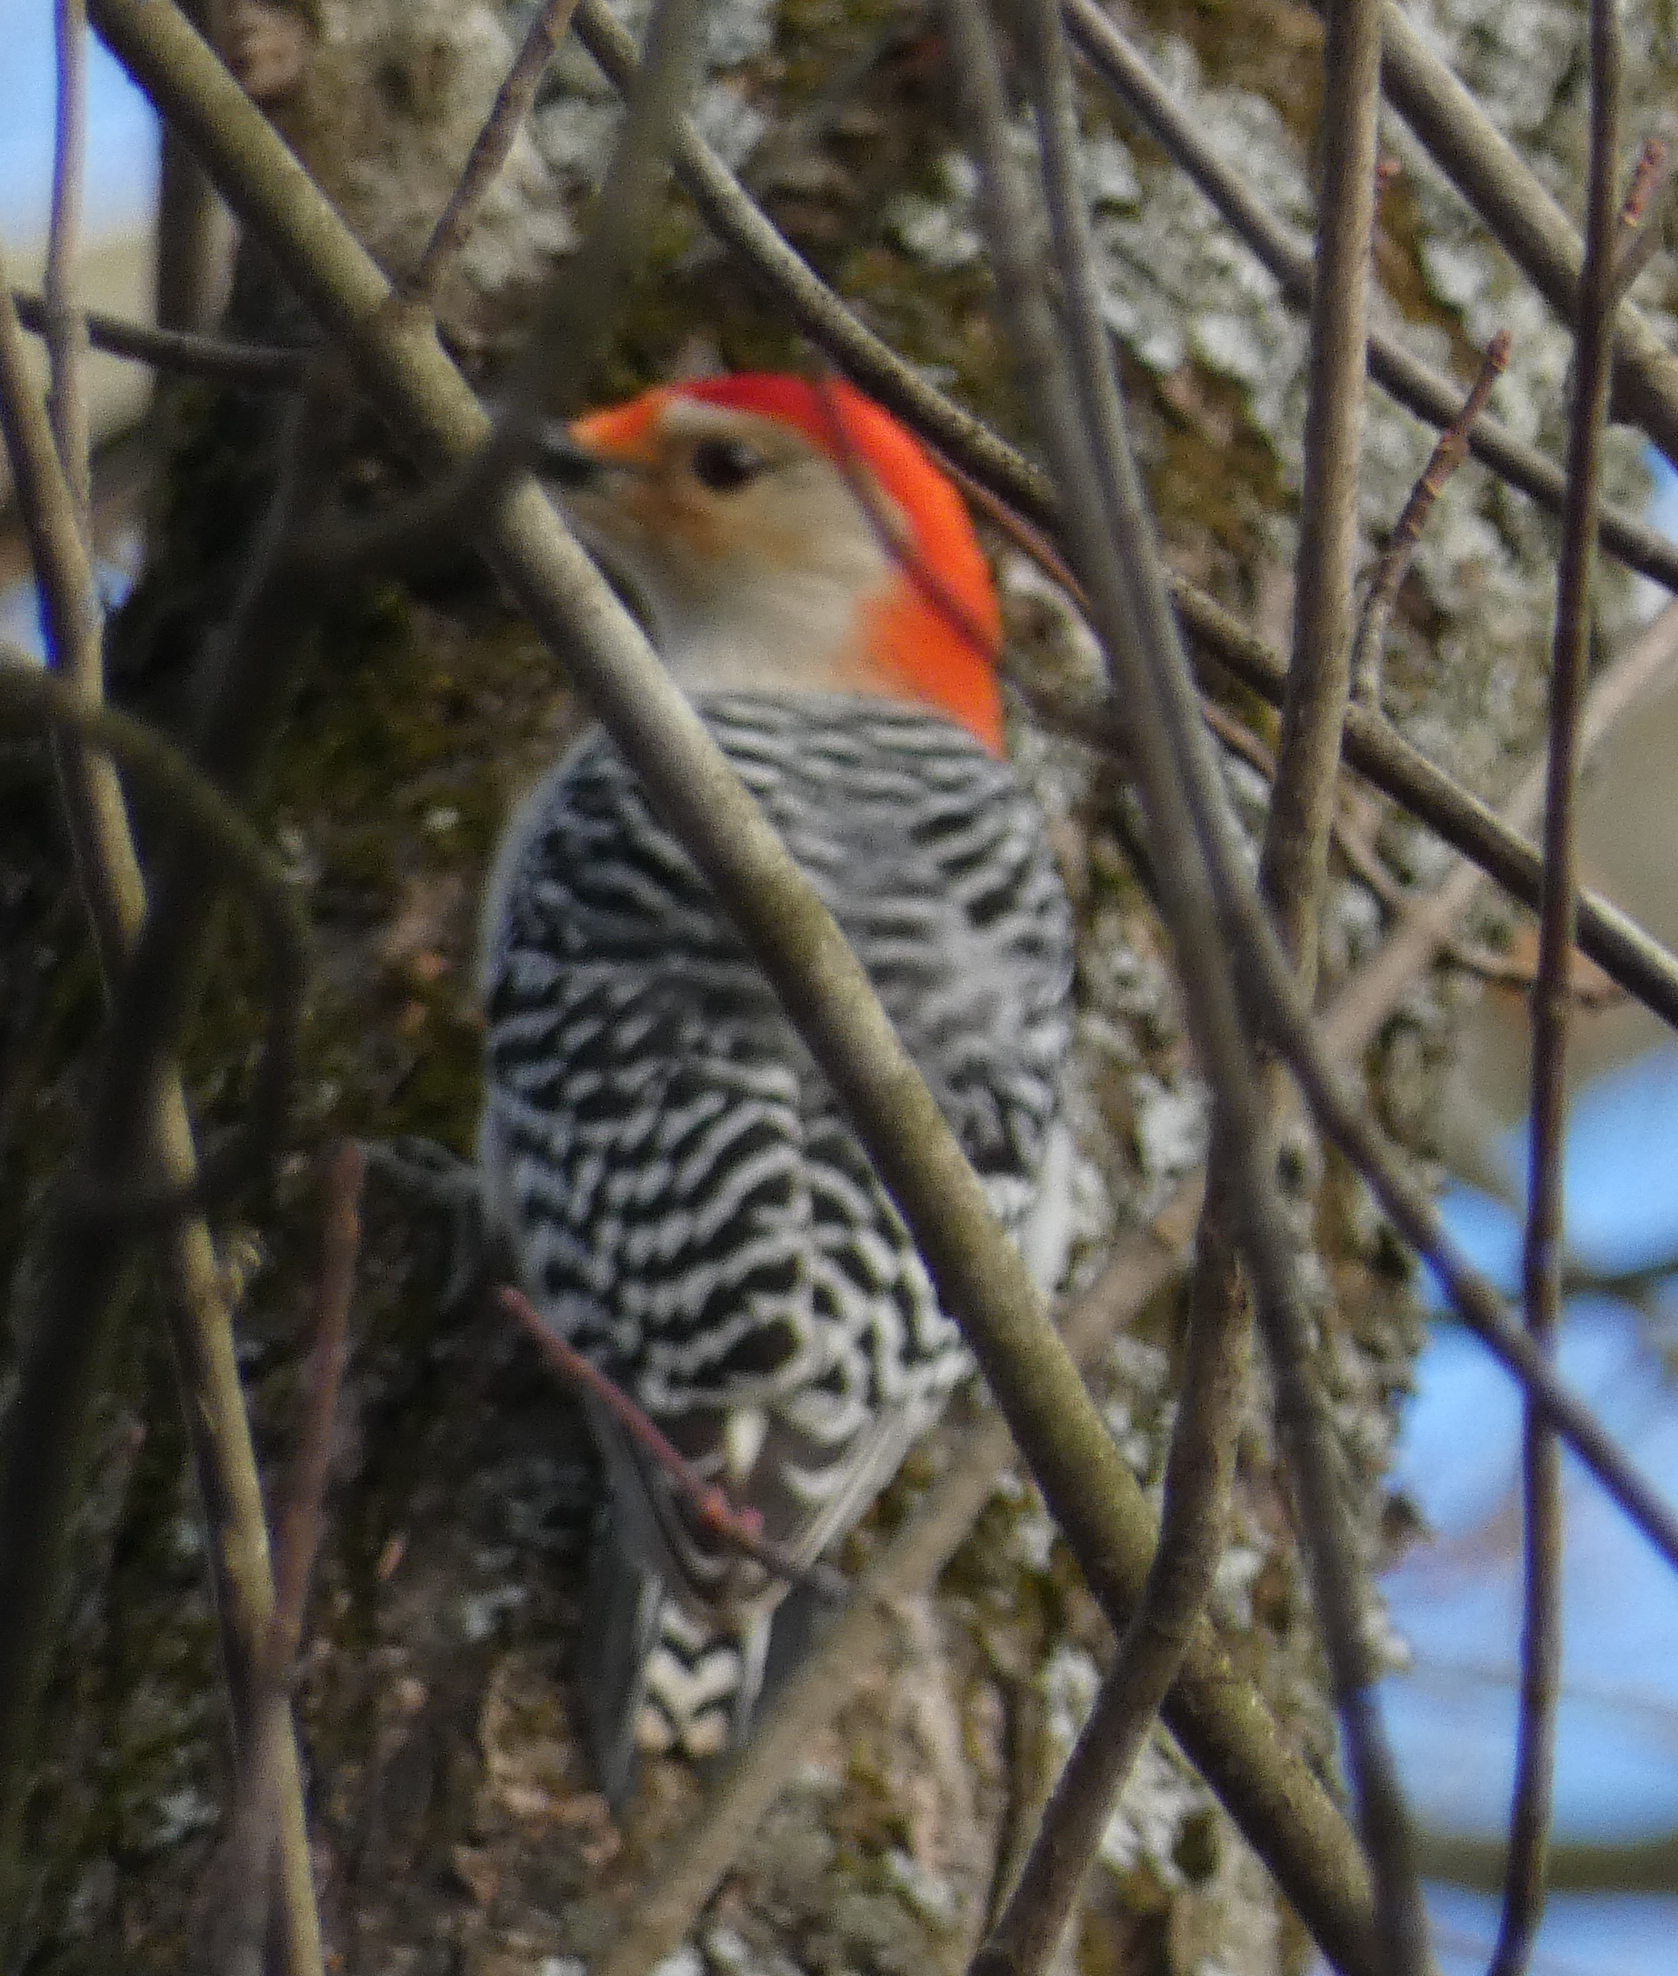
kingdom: Animalia
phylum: Chordata
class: Aves
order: Piciformes
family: Picidae
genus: Melanerpes
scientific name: Melanerpes carolinus
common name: Red-bellied woodpecker
